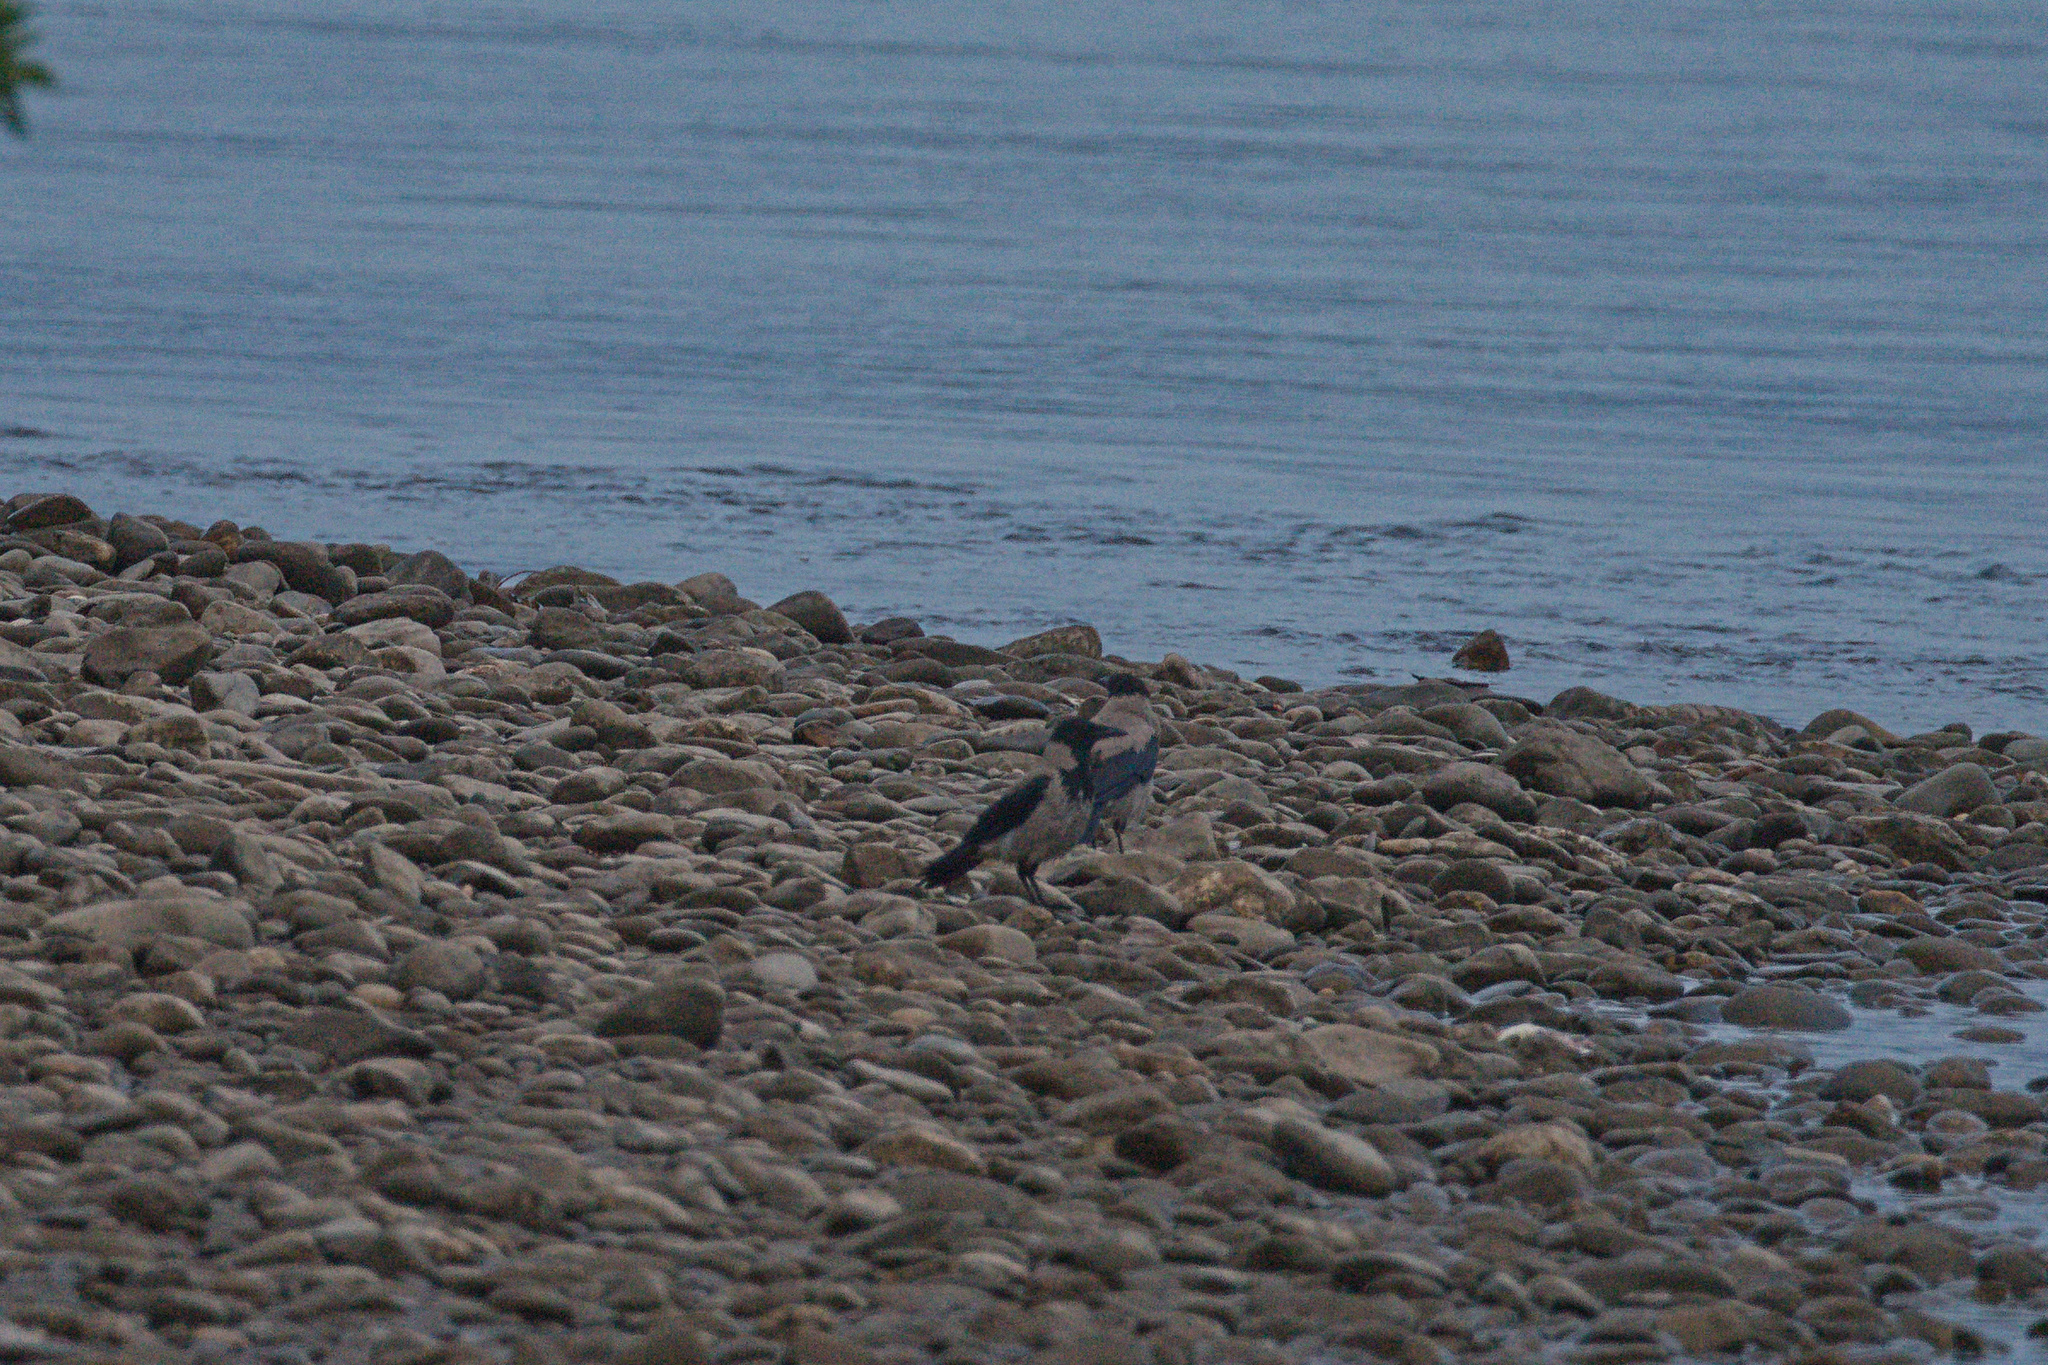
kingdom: Animalia
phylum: Chordata
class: Aves
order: Passeriformes
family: Corvidae
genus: Corvus
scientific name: Corvus cornix
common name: Hooded crow
